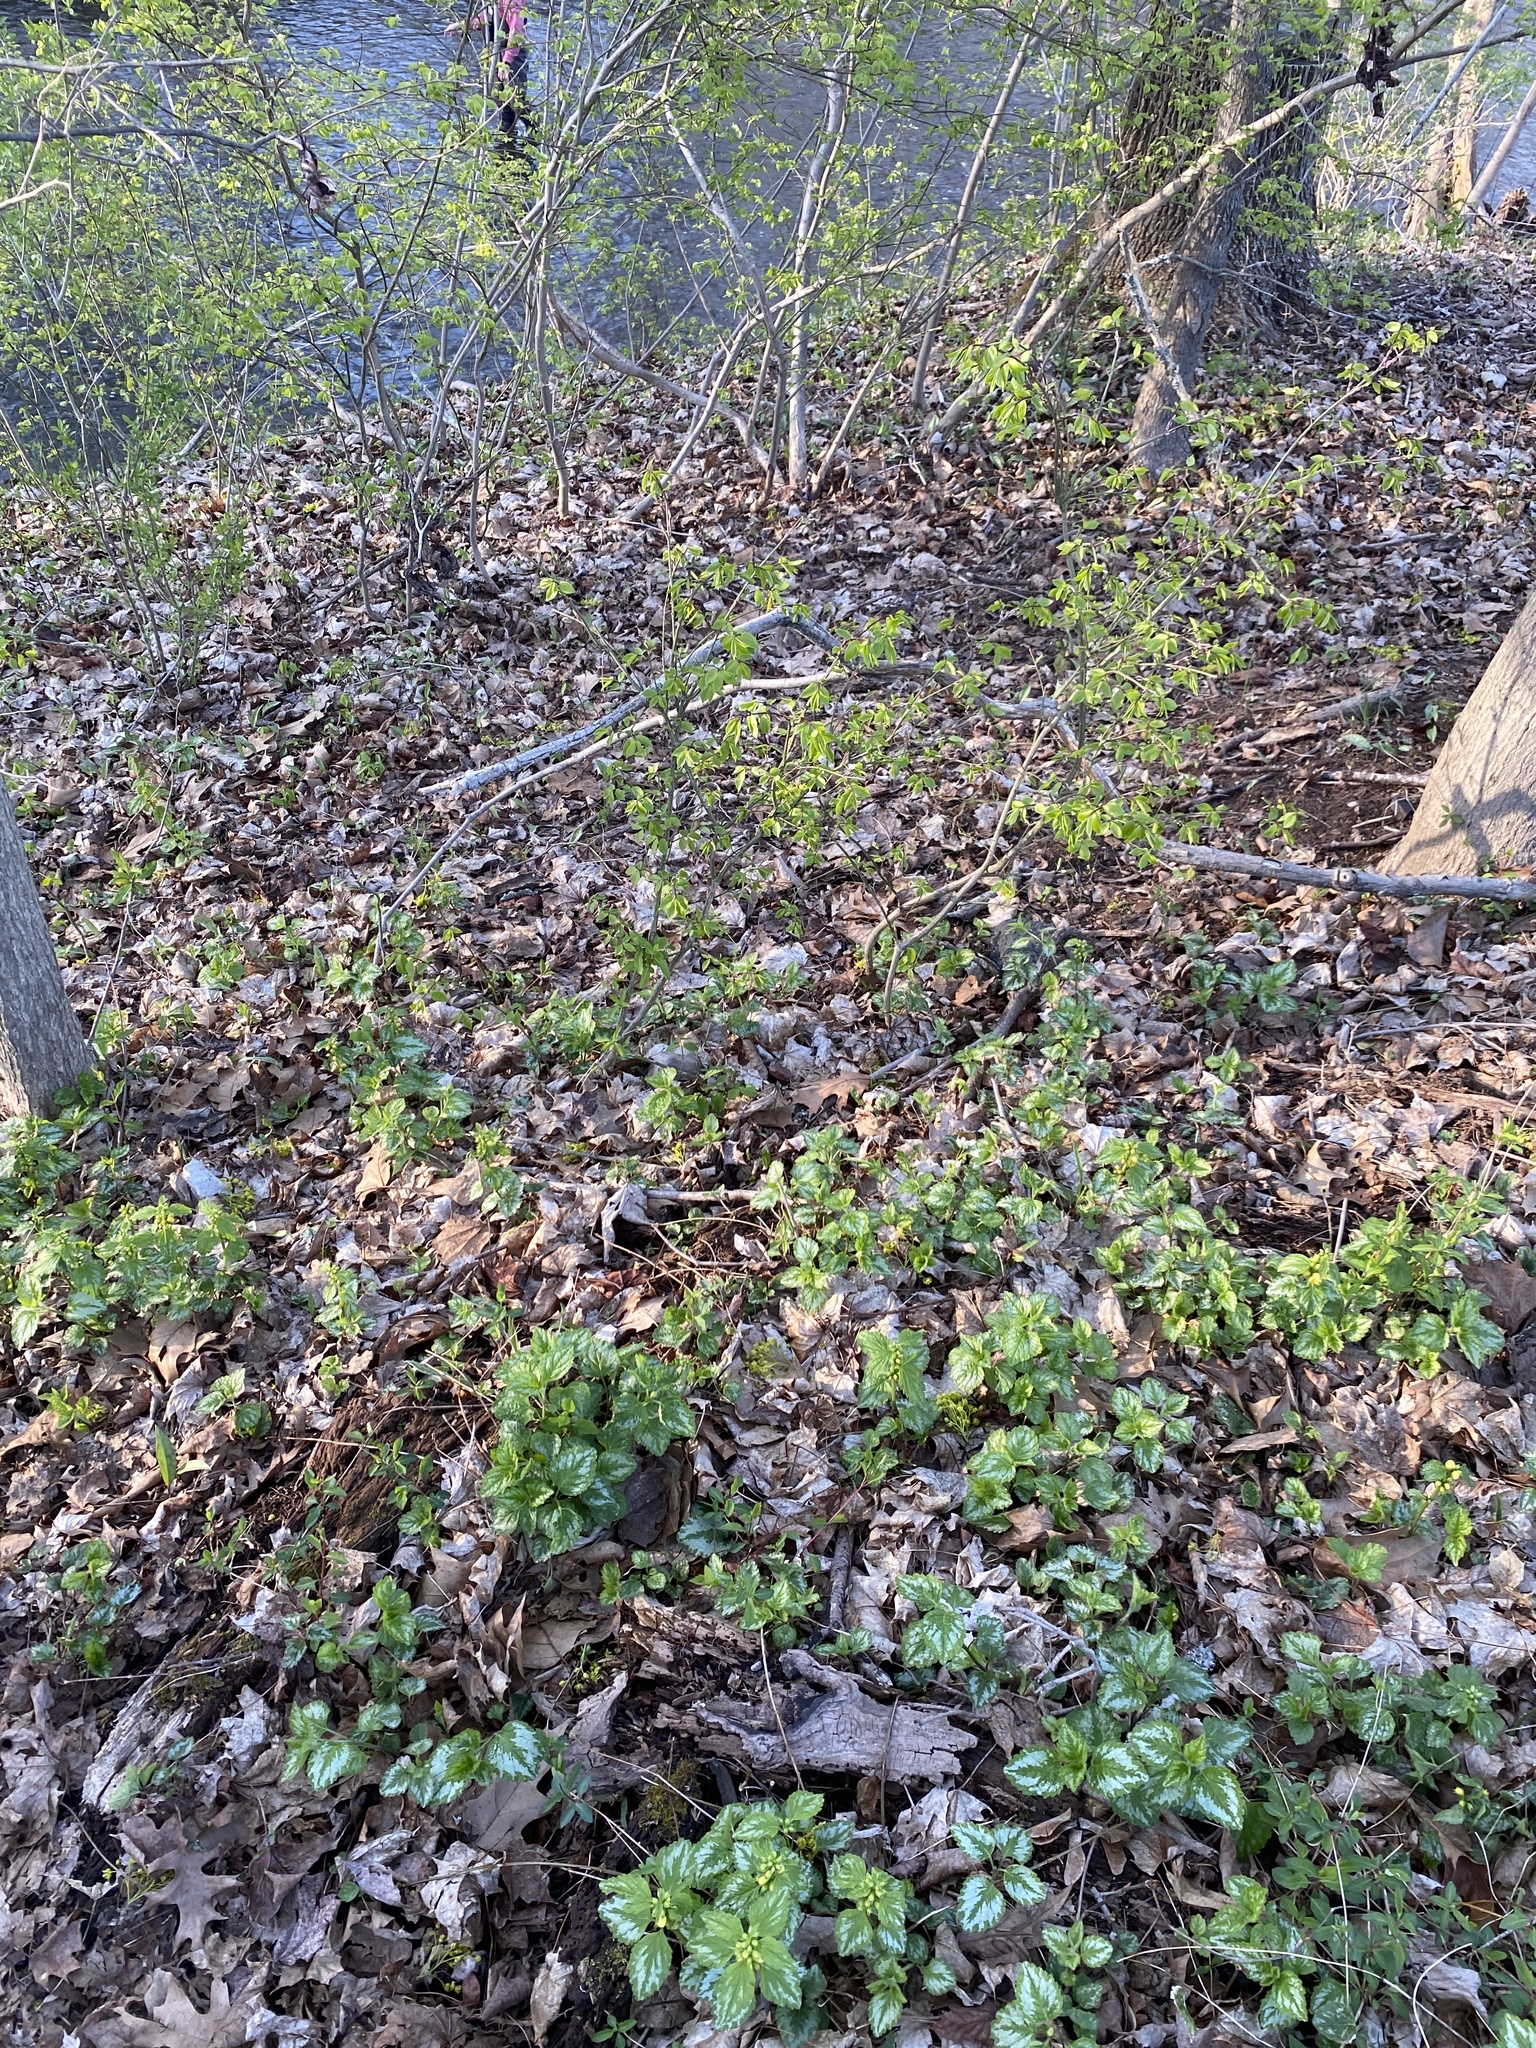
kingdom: Plantae
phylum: Tracheophyta
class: Magnoliopsida
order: Lamiales
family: Lamiaceae
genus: Lamium
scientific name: Lamium galeobdolon
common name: Yellow archangel
